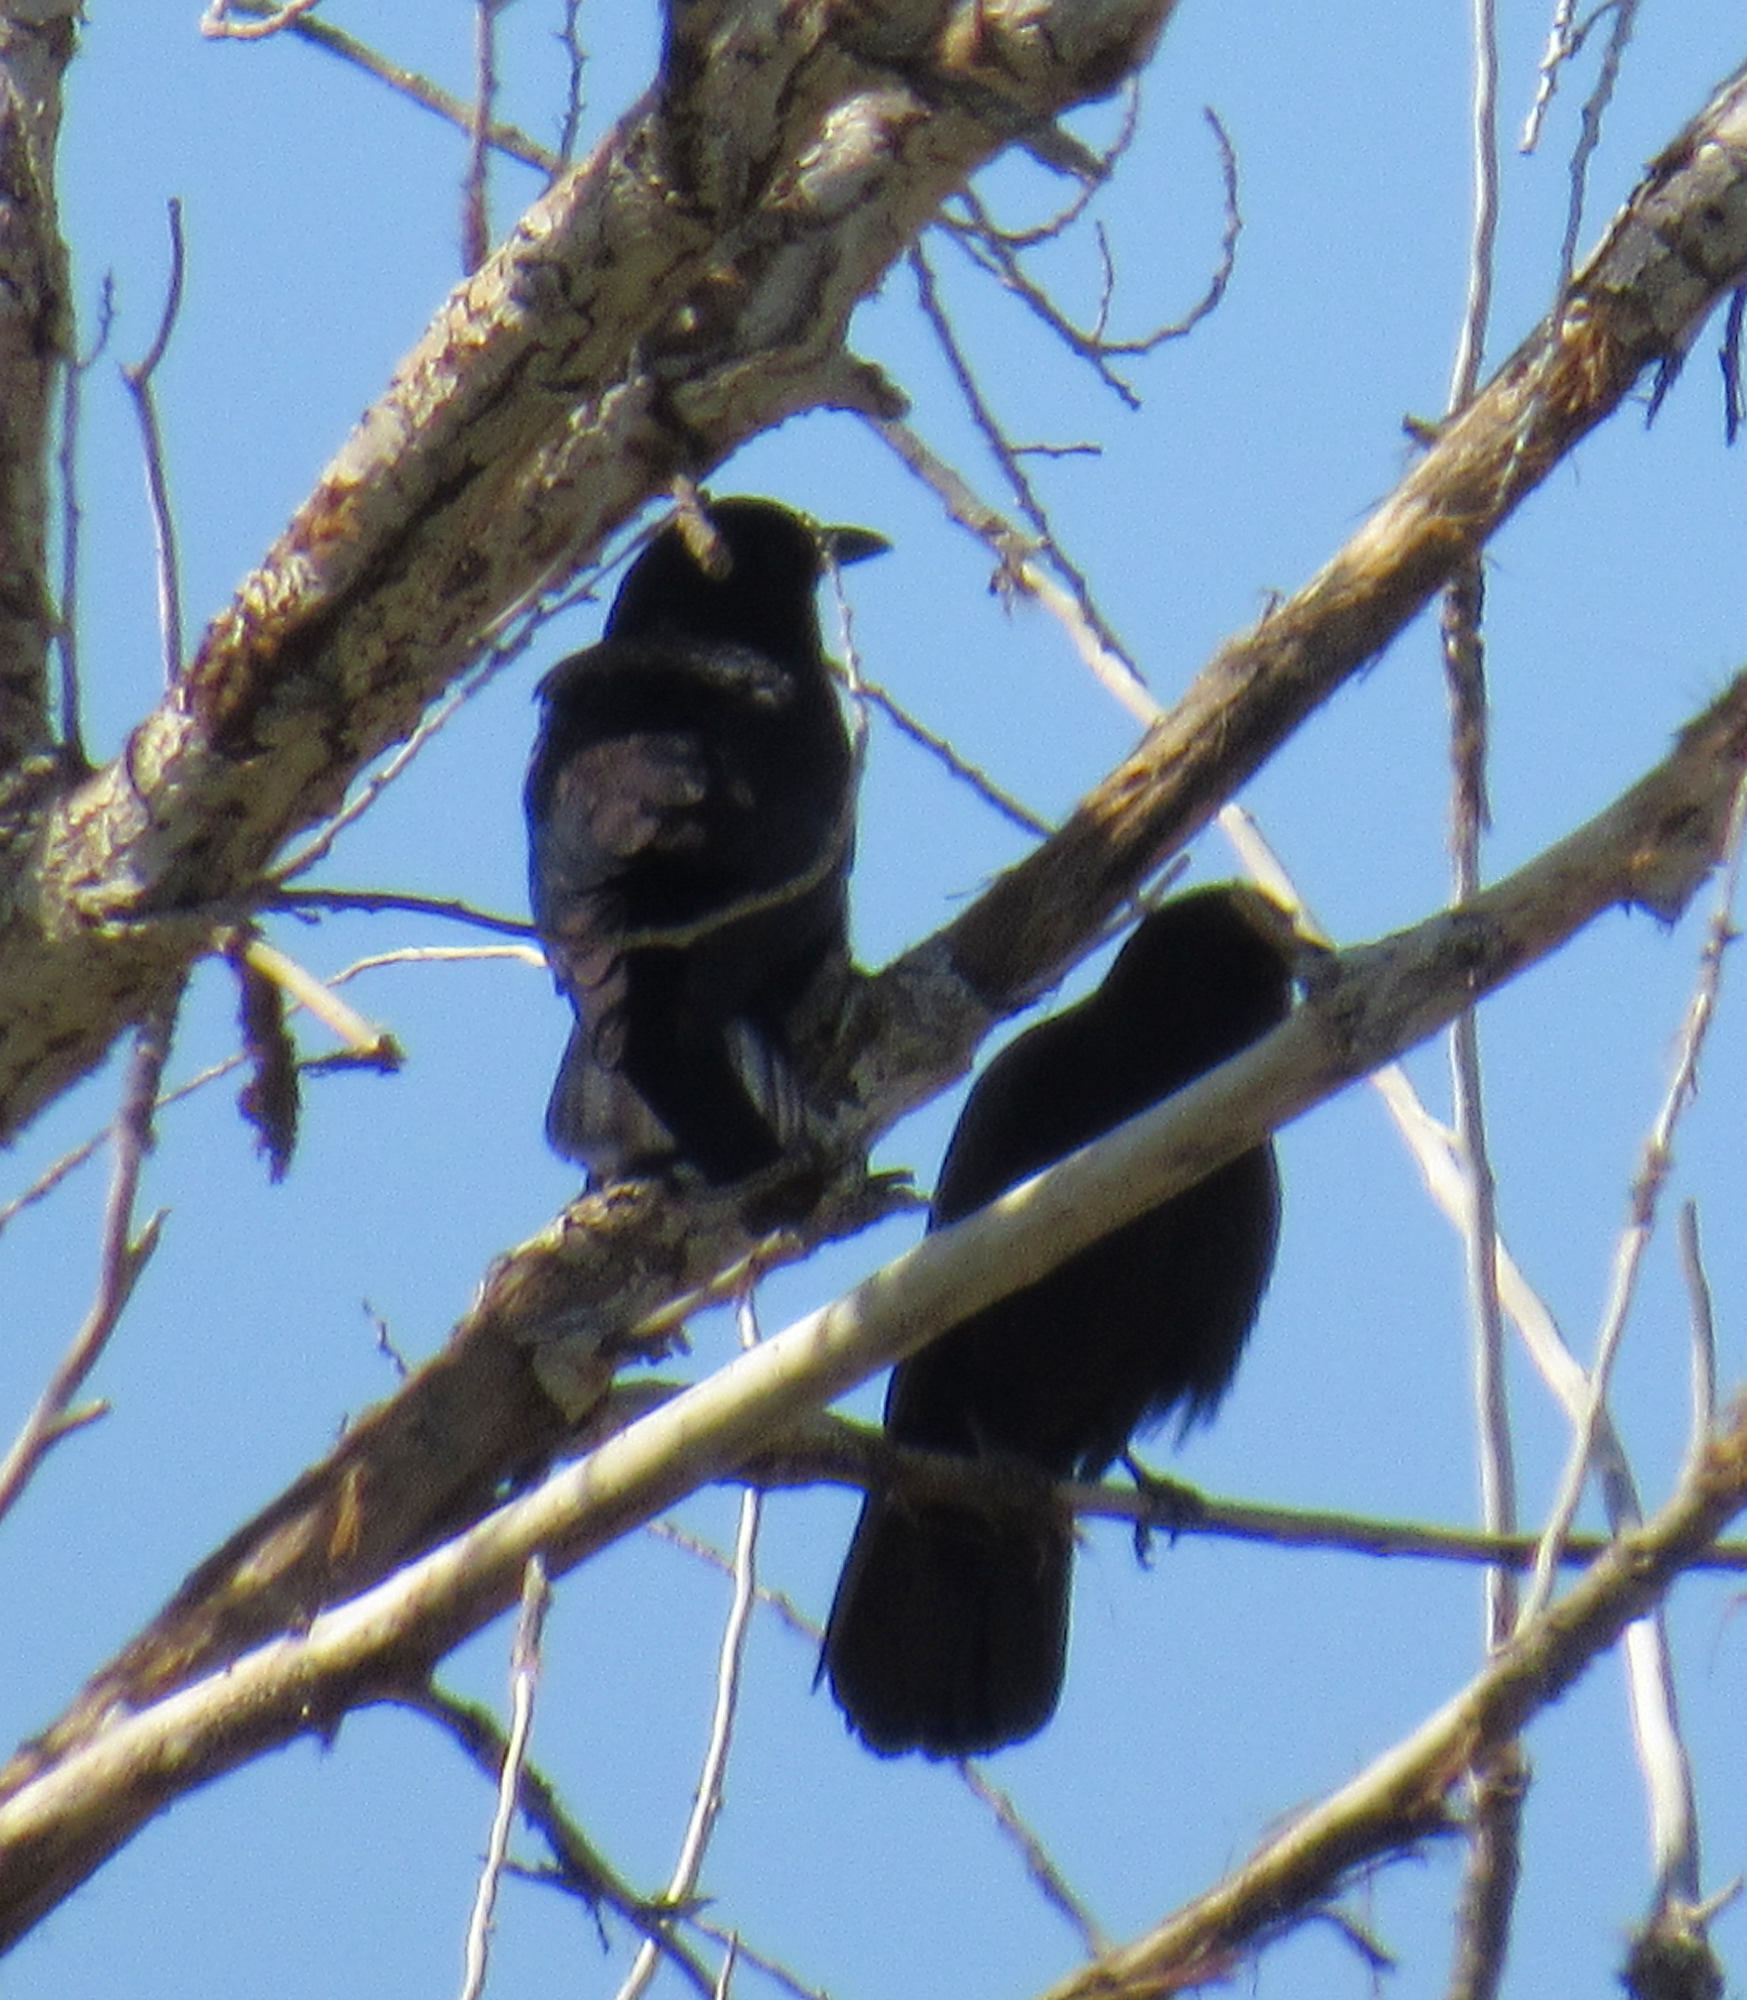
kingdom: Animalia
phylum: Chordata
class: Aves
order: Passeriformes
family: Corvidae
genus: Corvus
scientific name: Corvus brachyrhynchos
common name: American crow
